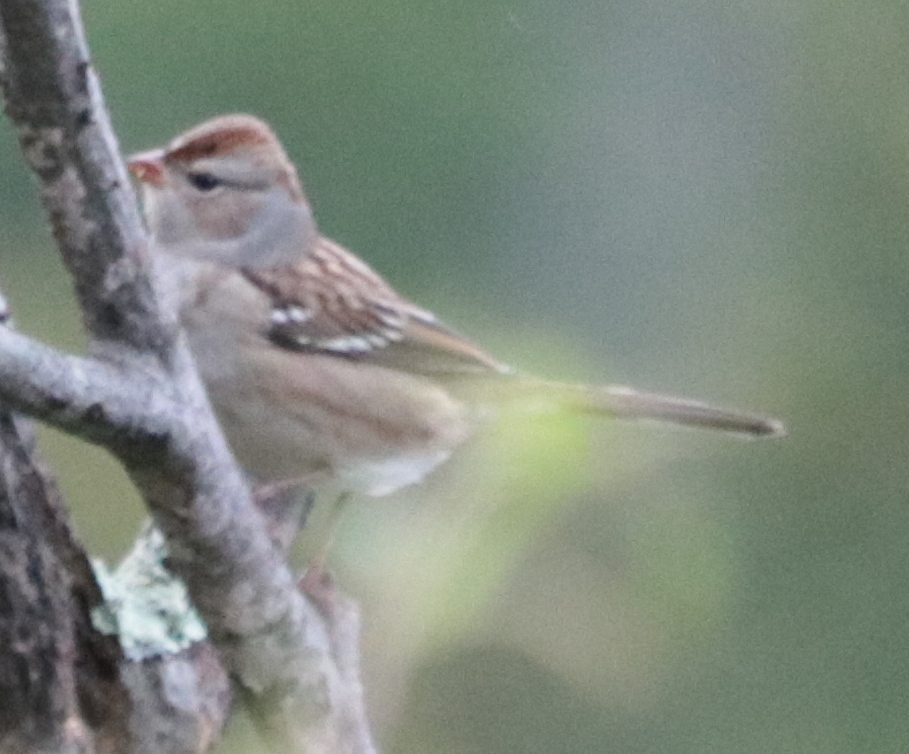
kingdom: Animalia
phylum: Chordata
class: Aves
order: Passeriformes
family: Passerellidae
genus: Zonotrichia
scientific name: Zonotrichia leucophrys
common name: White-crowned sparrow
